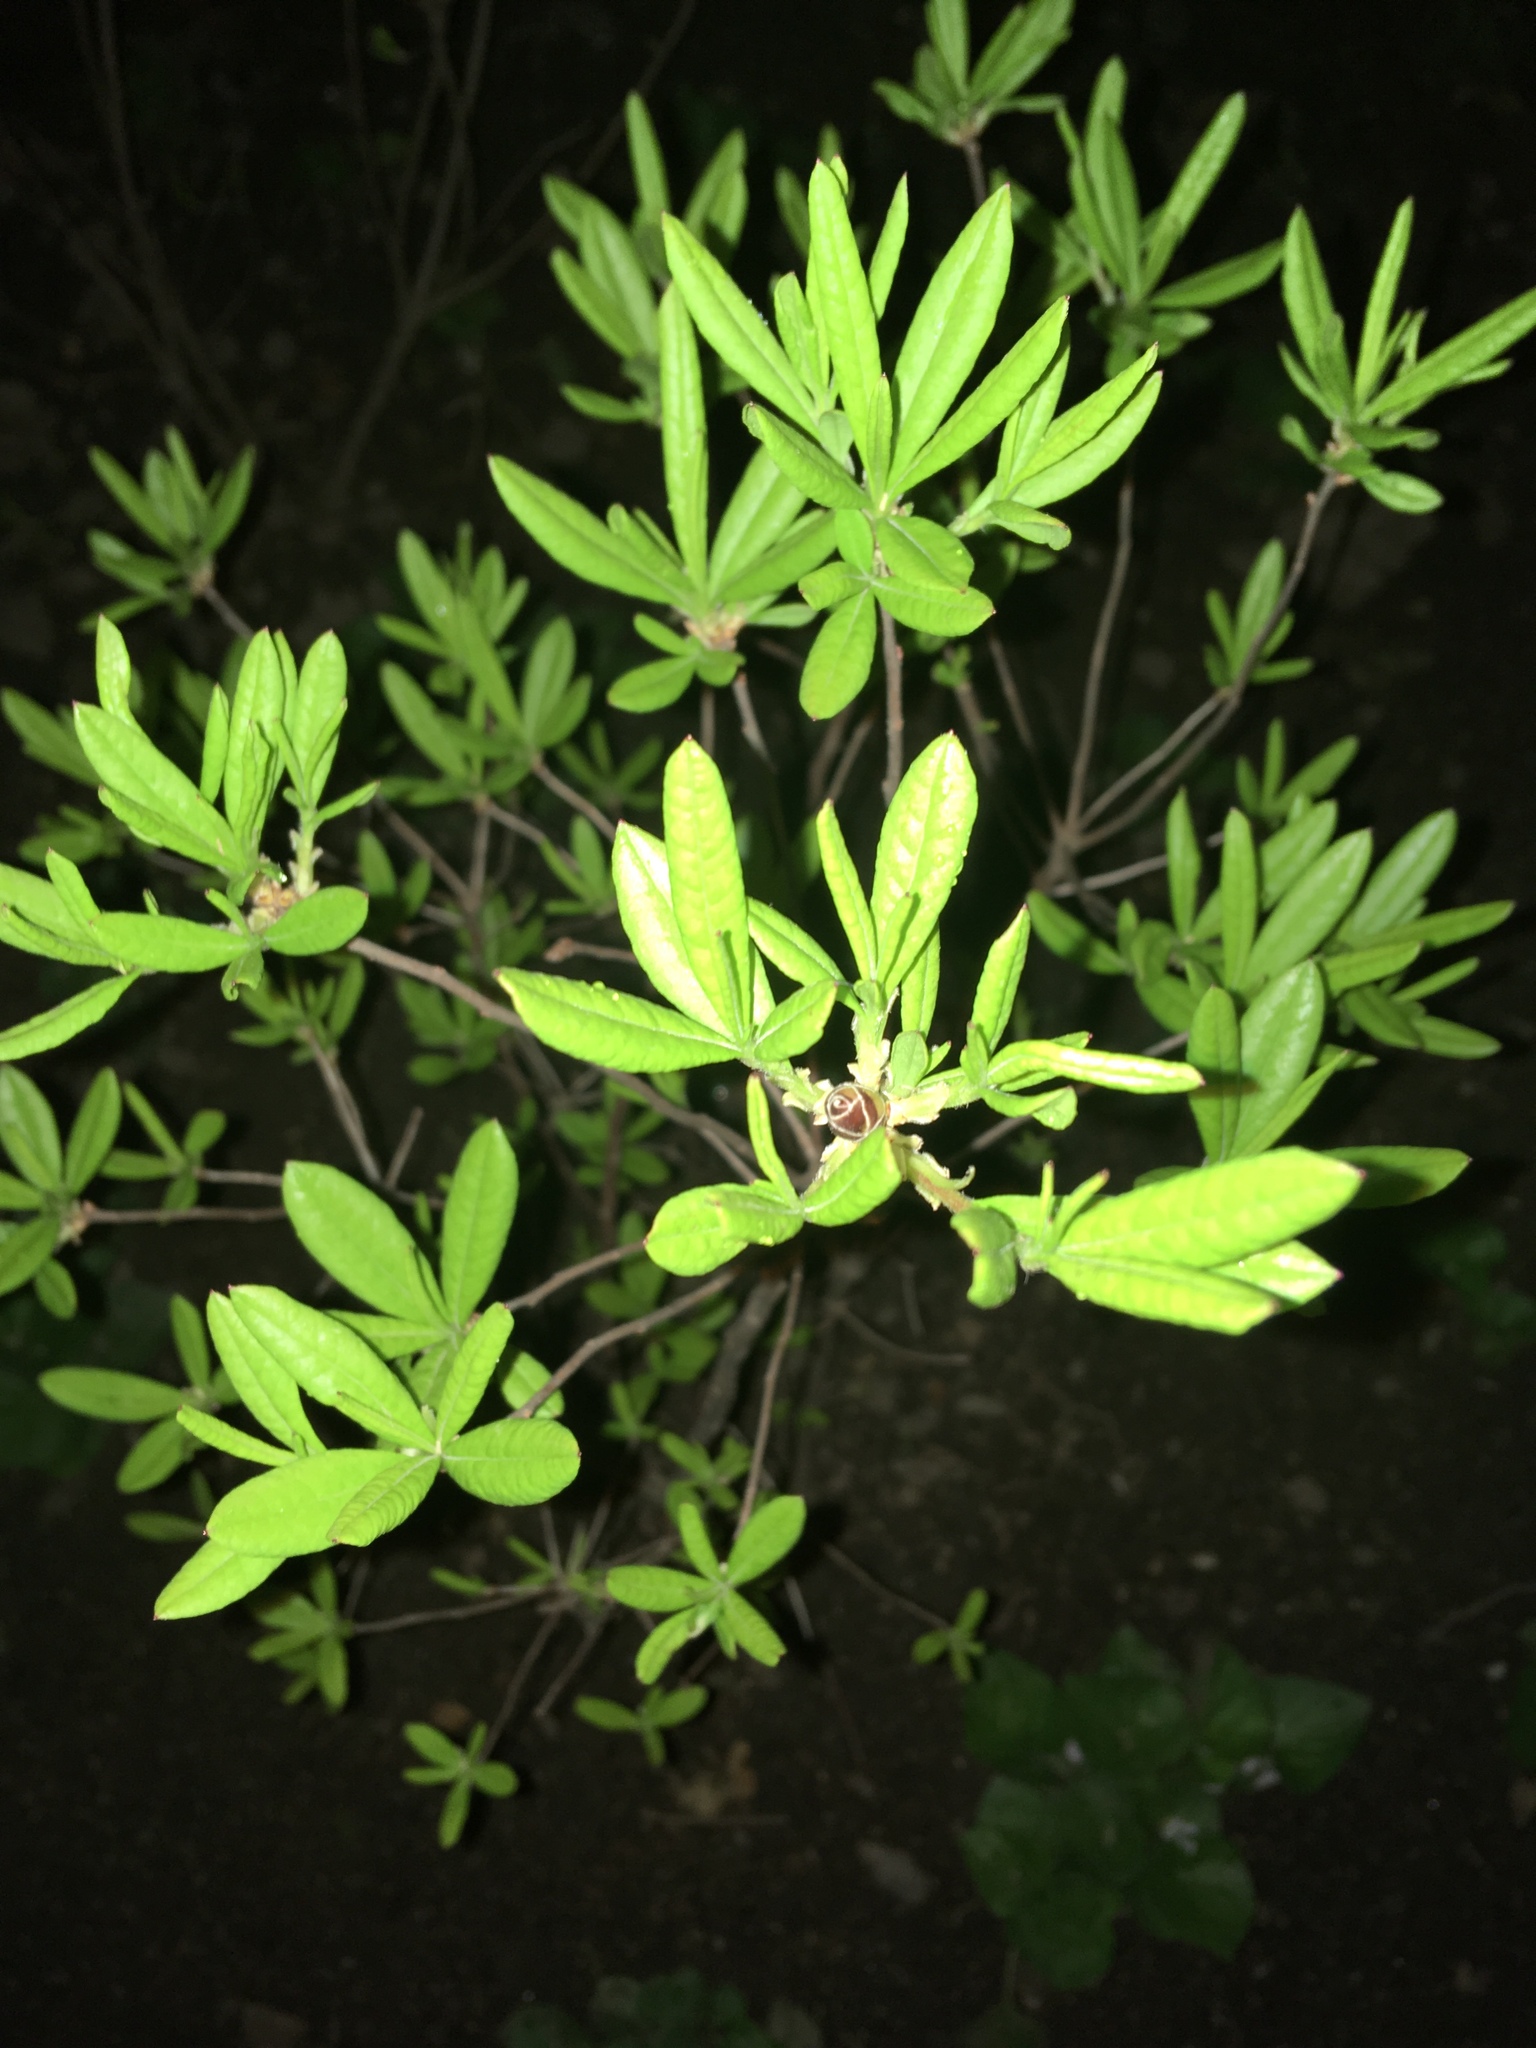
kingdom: Plantae
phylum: Tracheophyta
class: Magnoliopsida
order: Ericales
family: Ericaceae
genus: Rhododendron
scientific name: Rhododendron viscosum
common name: Clammy azalea
